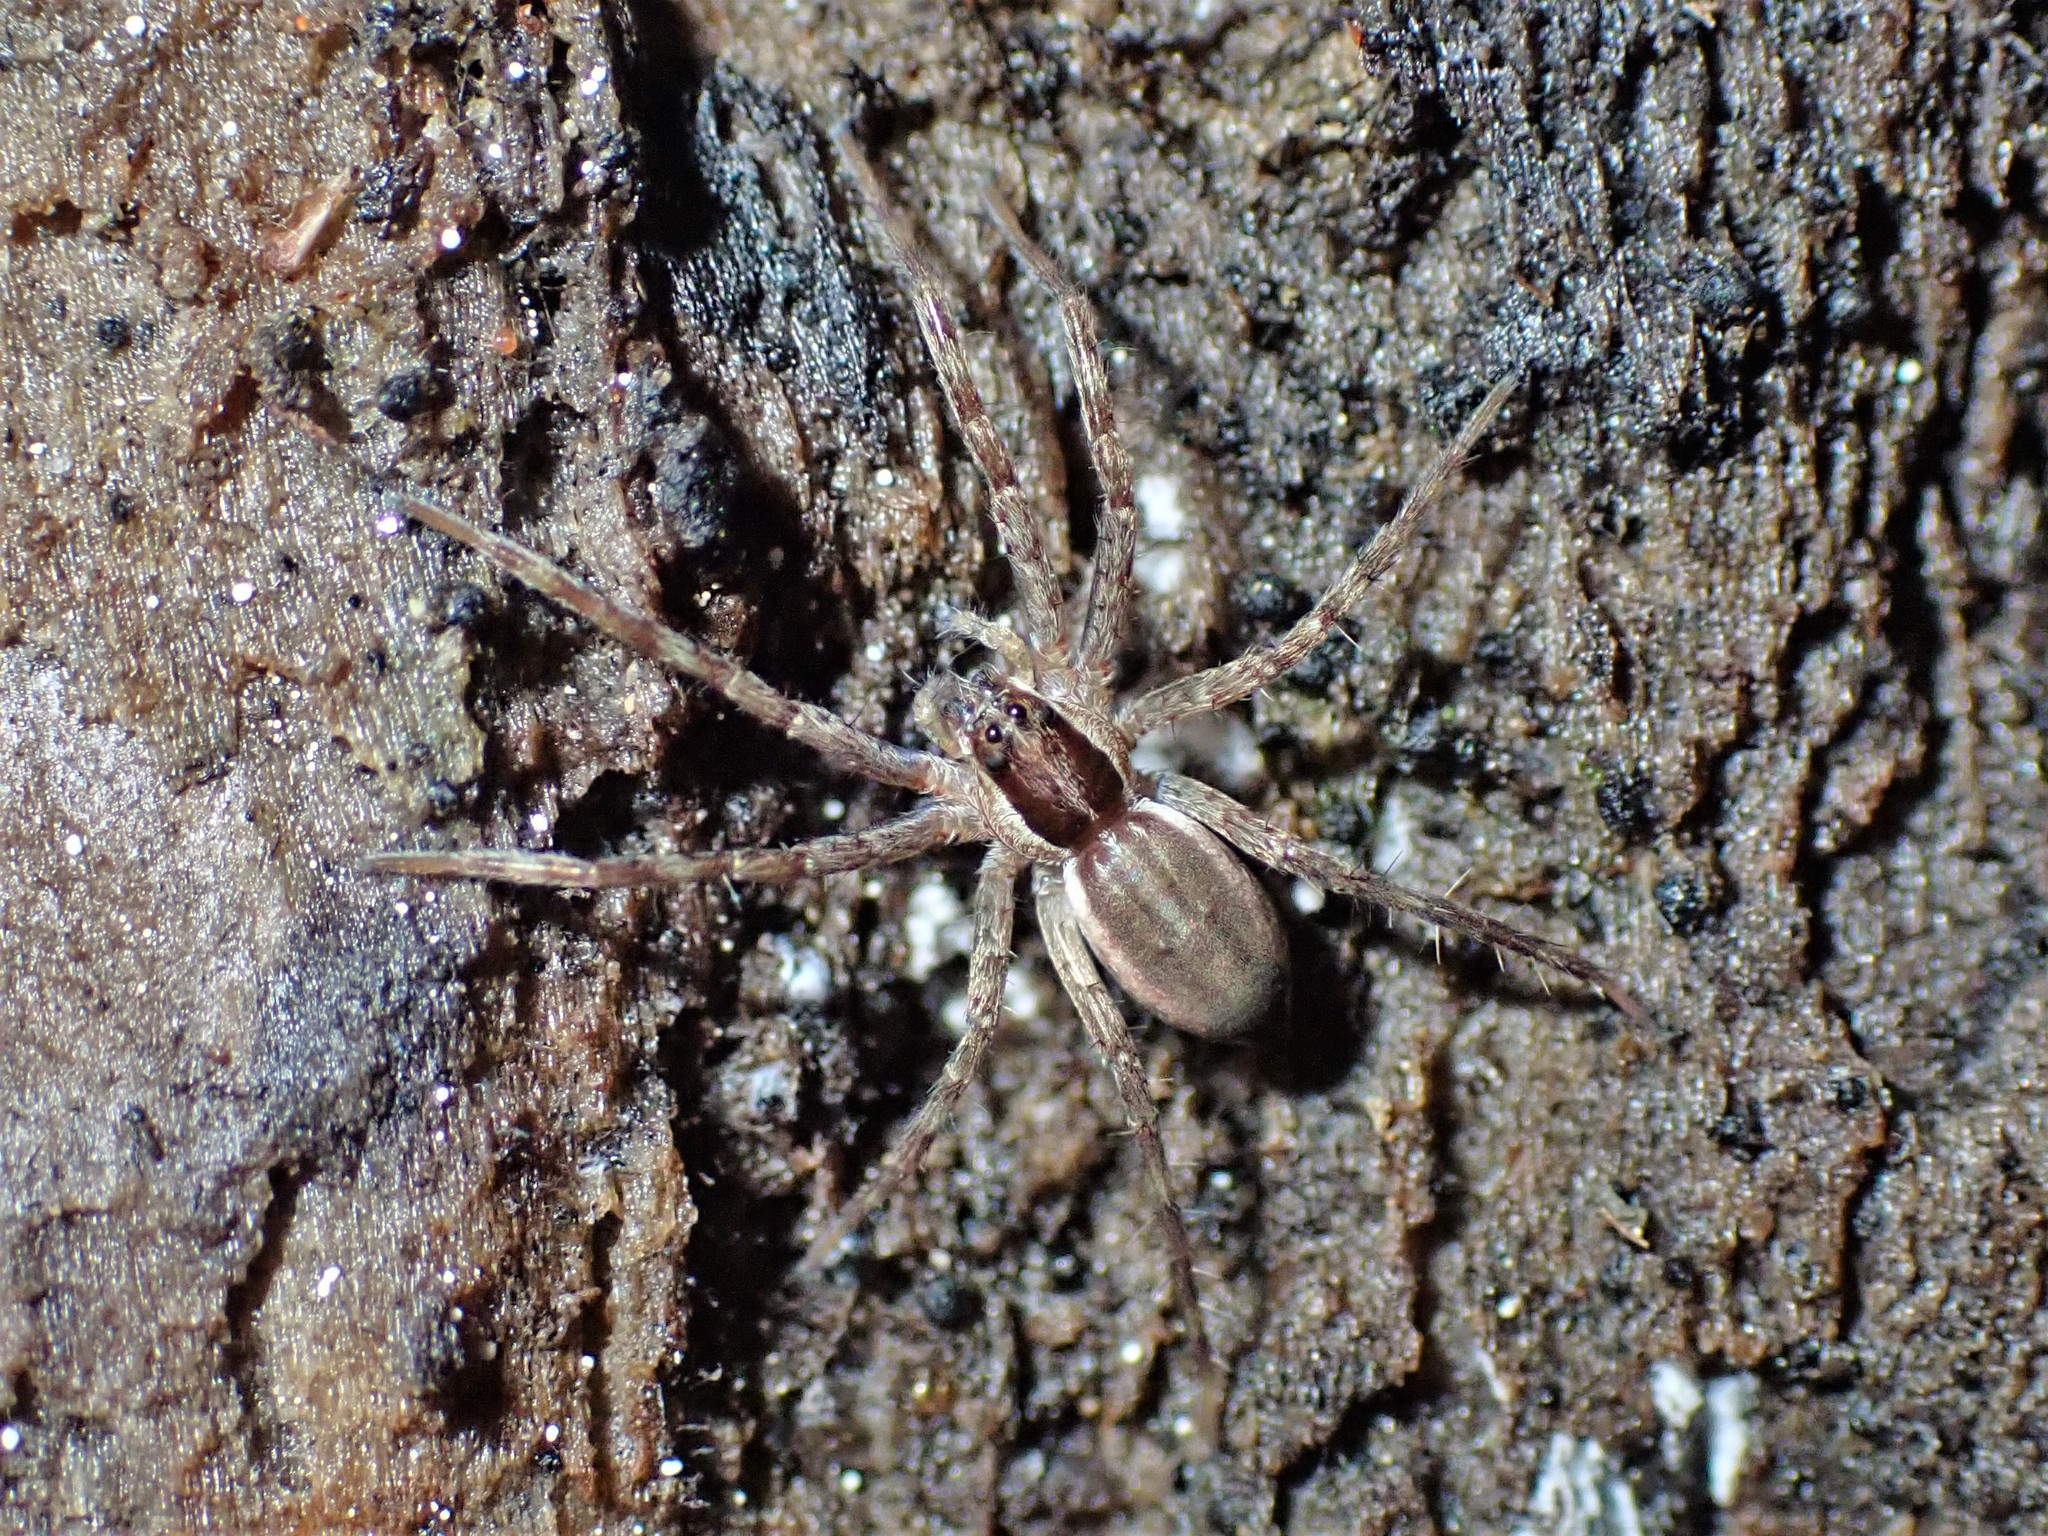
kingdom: Animalia
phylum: Arthropoda
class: Arachnida
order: Araneae
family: Pisauridae
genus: Dolomedes
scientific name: Dolomedes aquaticus
